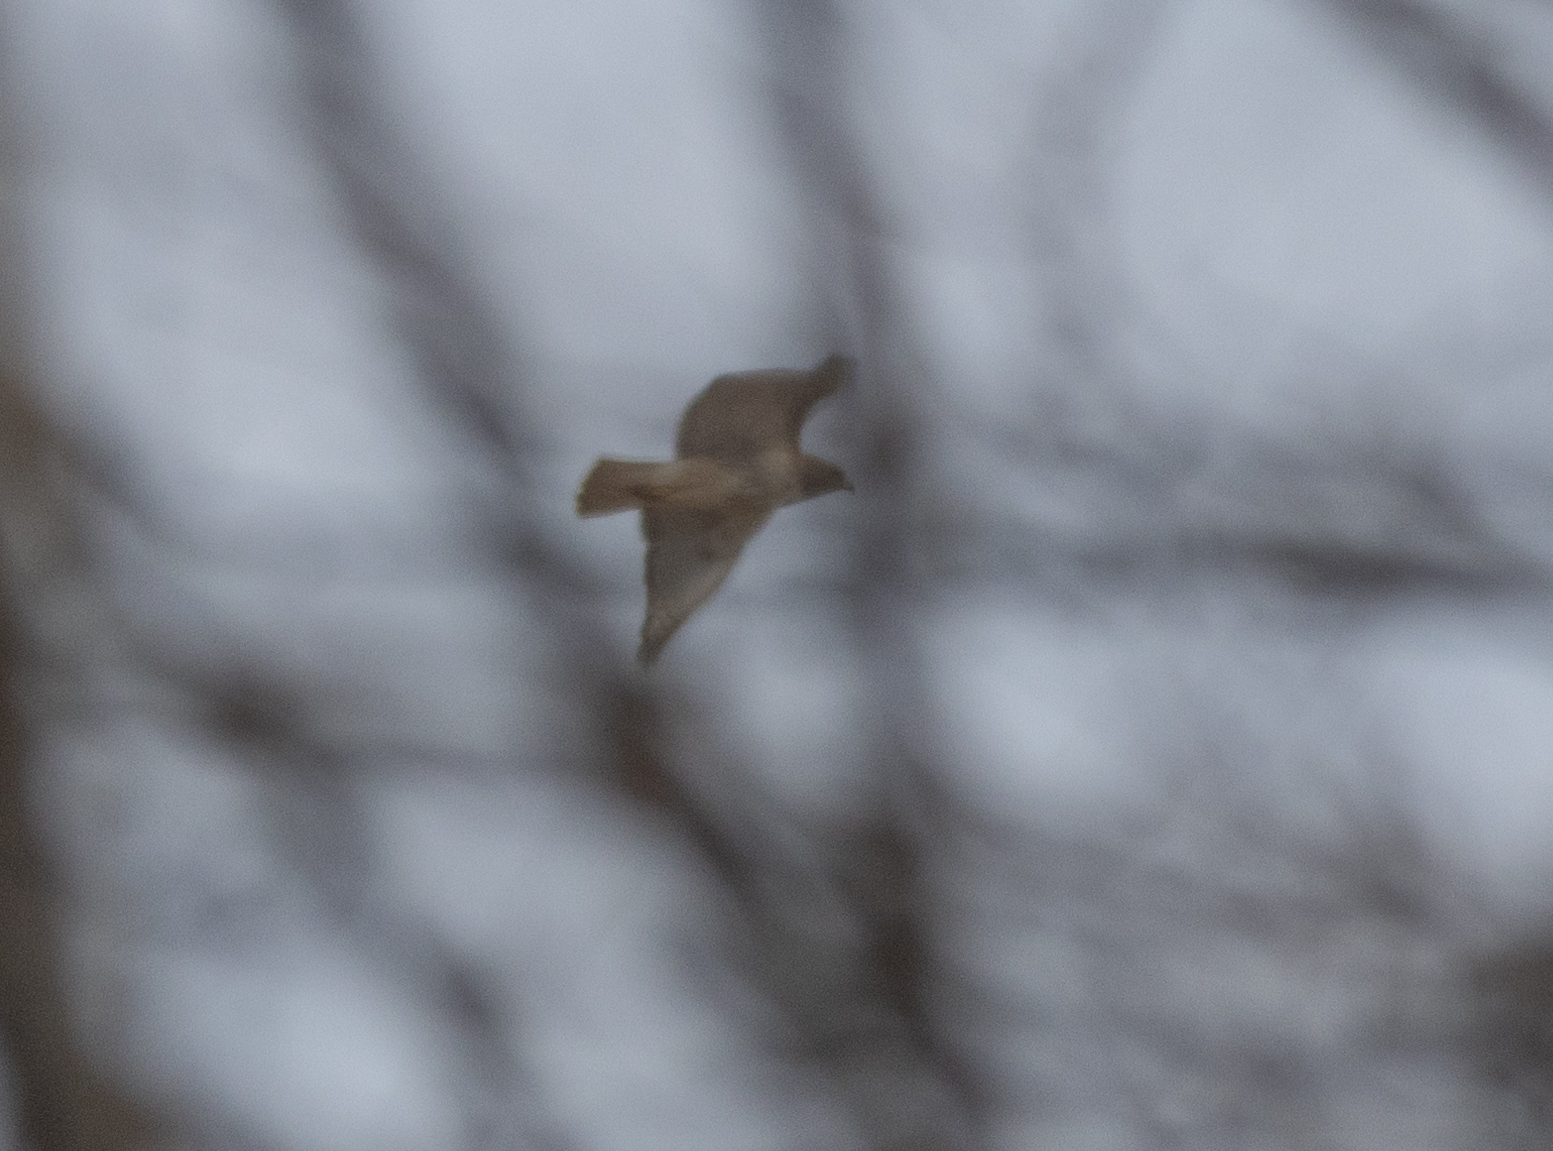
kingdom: Animalia
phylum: Chordata
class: Aves
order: Accipitriformes
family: Accipitridae
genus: Buteo
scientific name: Buteo jamaicensis
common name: Red-tailed hawk
